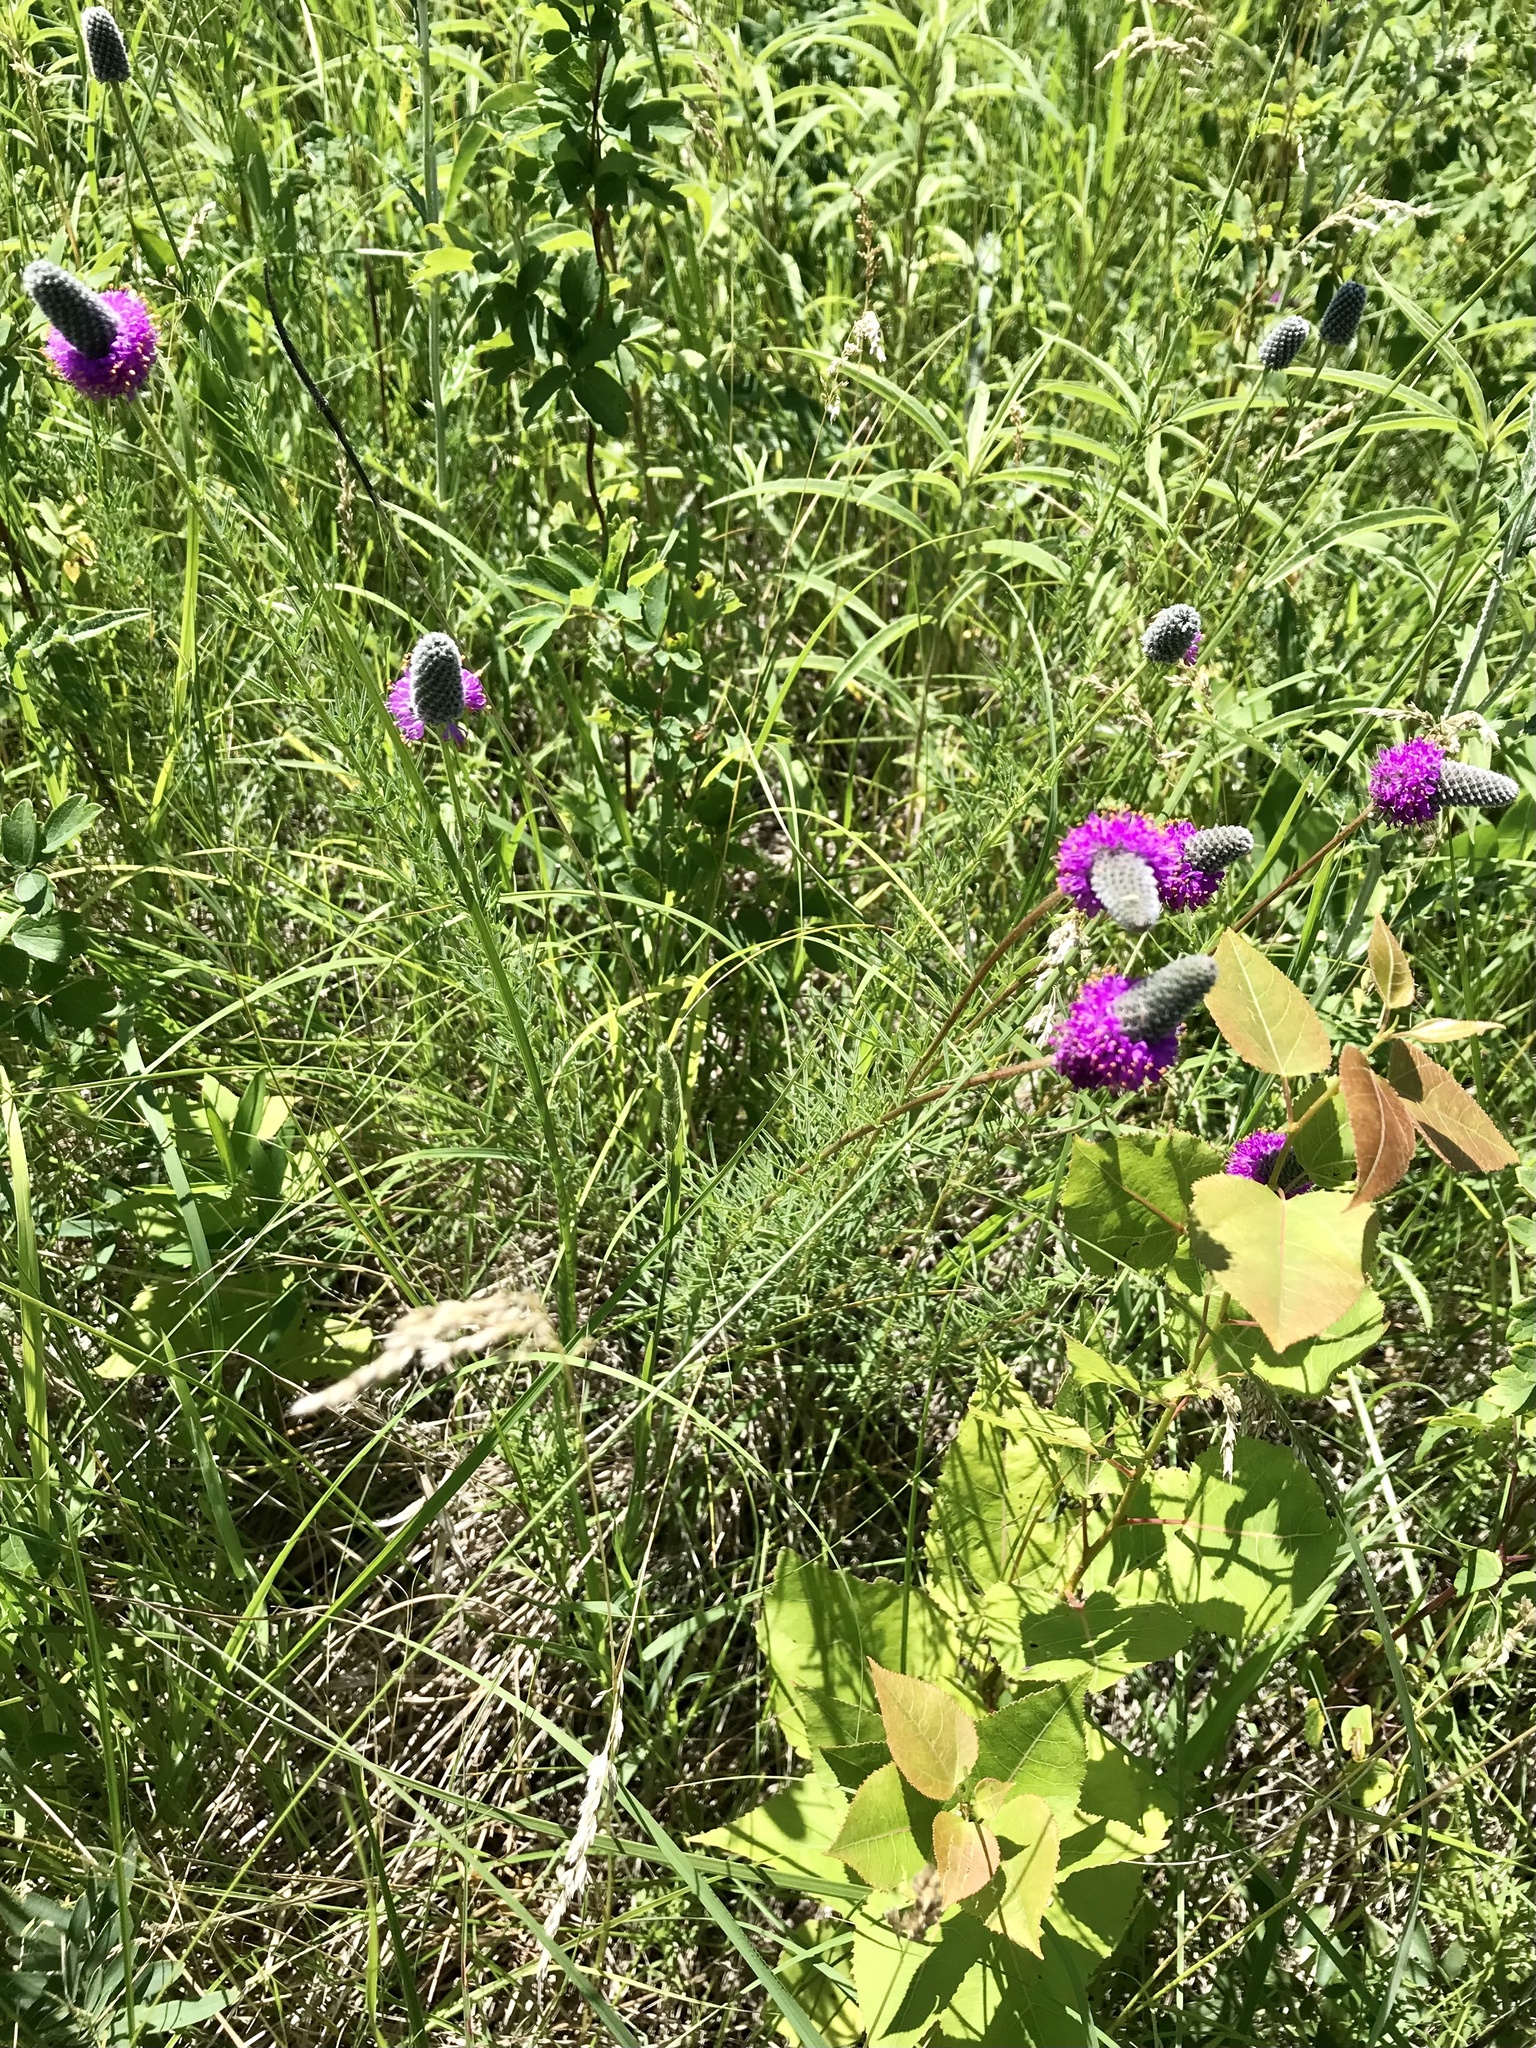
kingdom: Plantae
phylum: Tracheophyta
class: Magnoliopsida
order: Fabales
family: Fabaceae
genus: Dalea
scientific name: Dalea purpurea
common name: Purple prairie-clover
